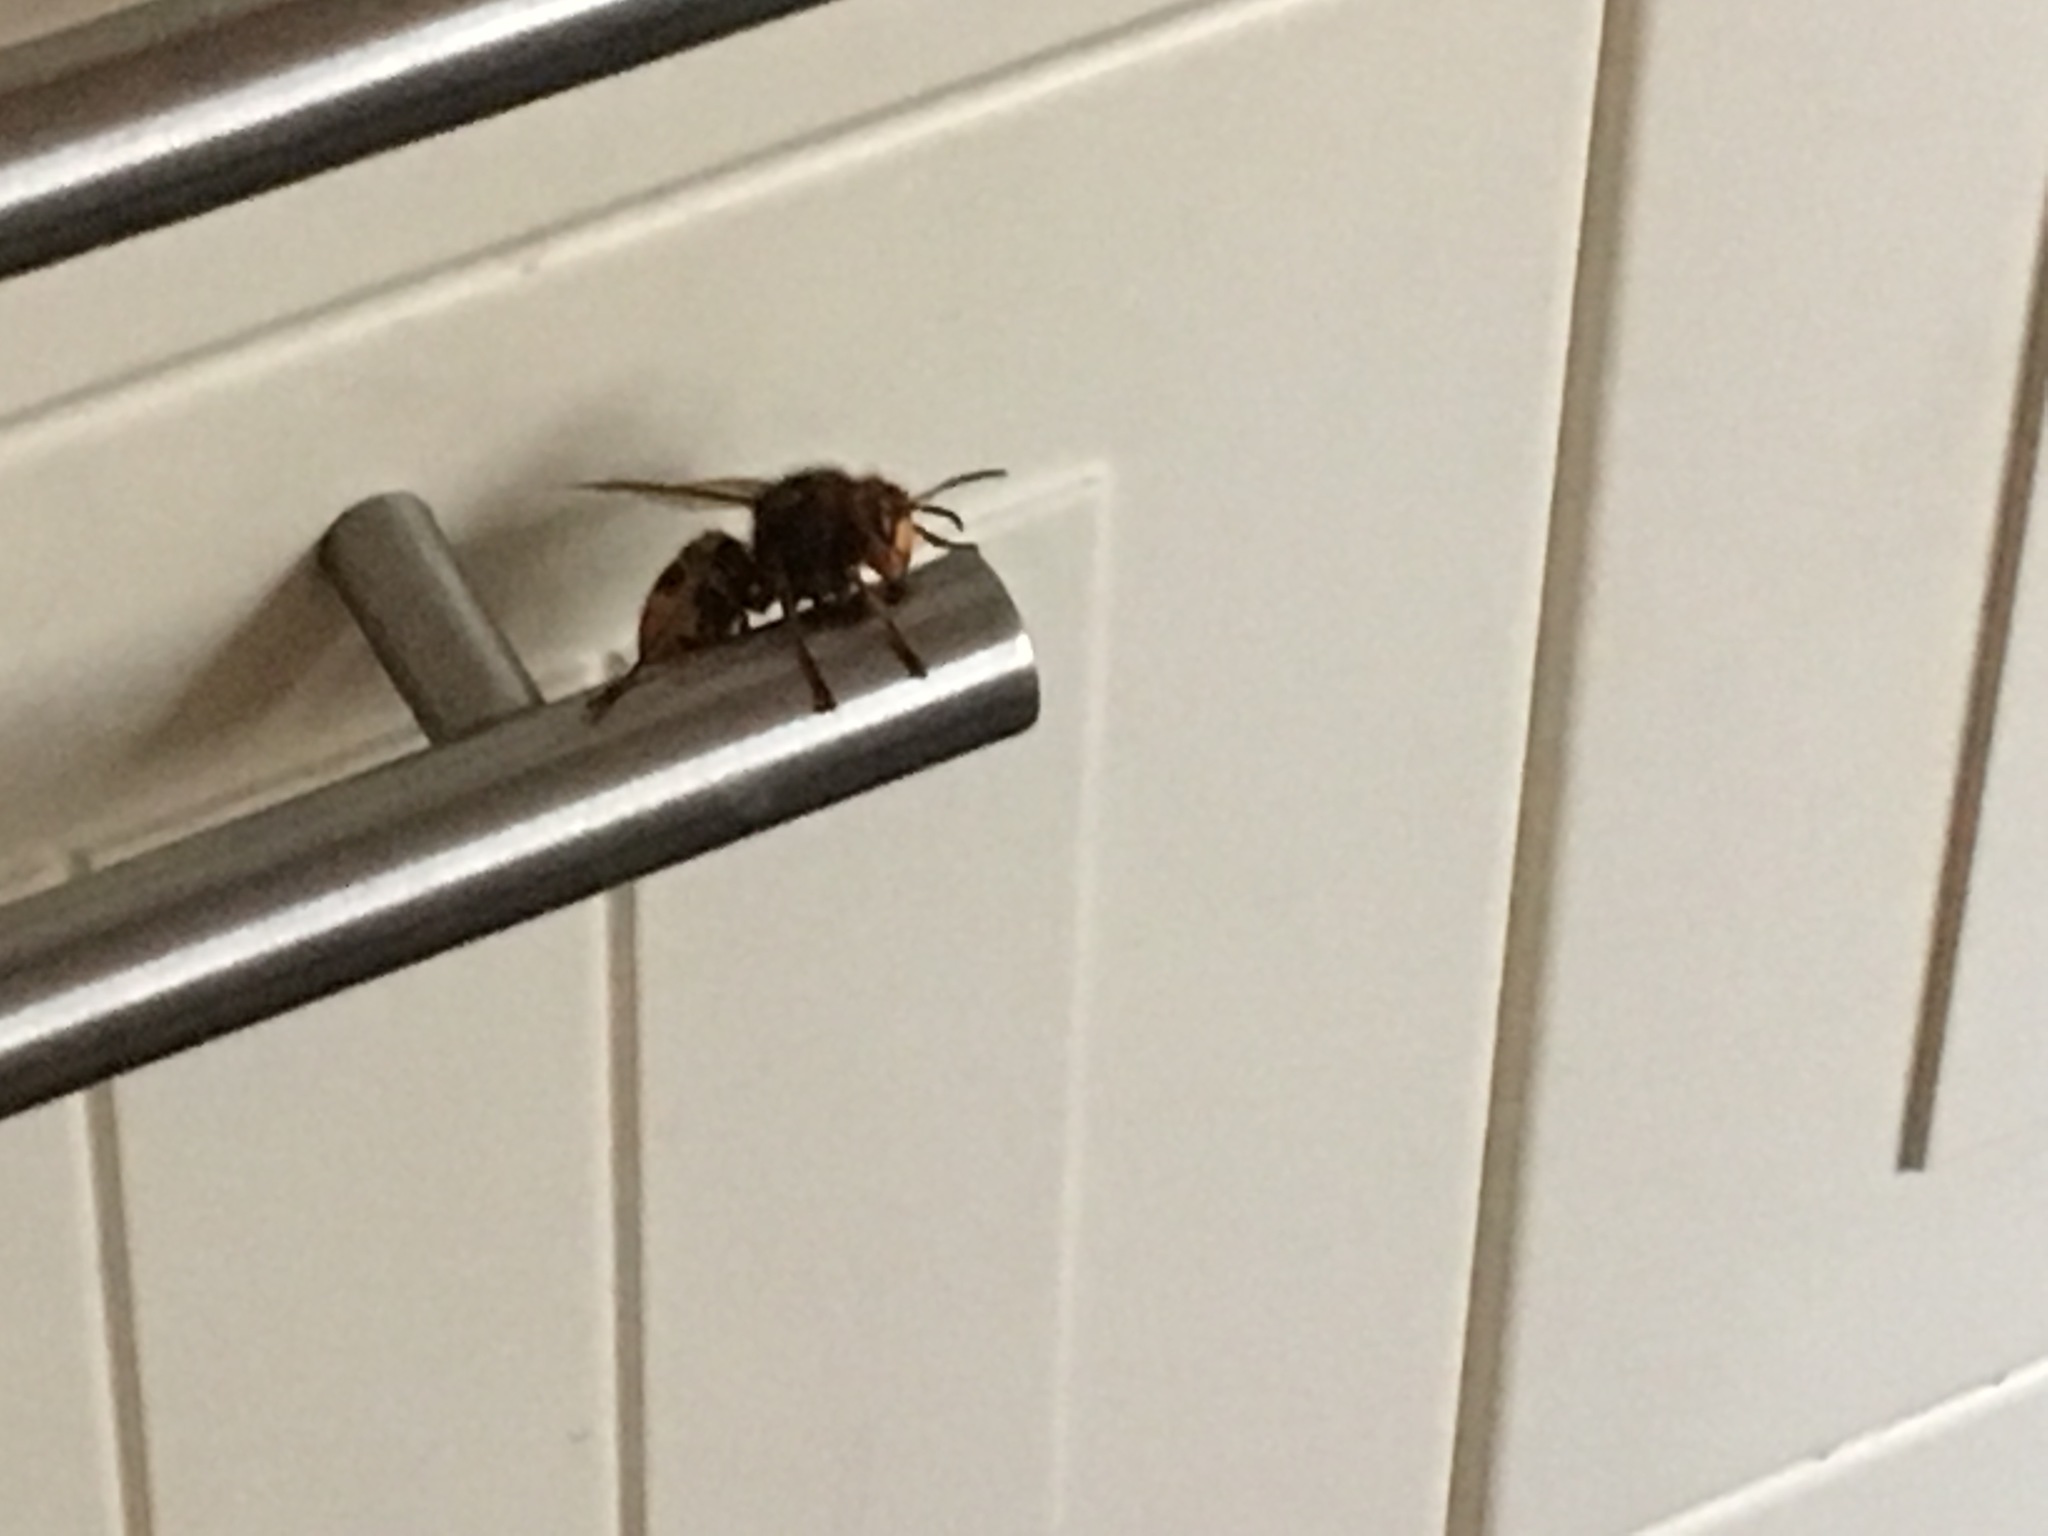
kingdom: Animalia
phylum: Arthropoda
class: Insecta
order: Hymenoptera
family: Vespidae
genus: Vespa
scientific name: Vespa crabro
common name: Hornet
